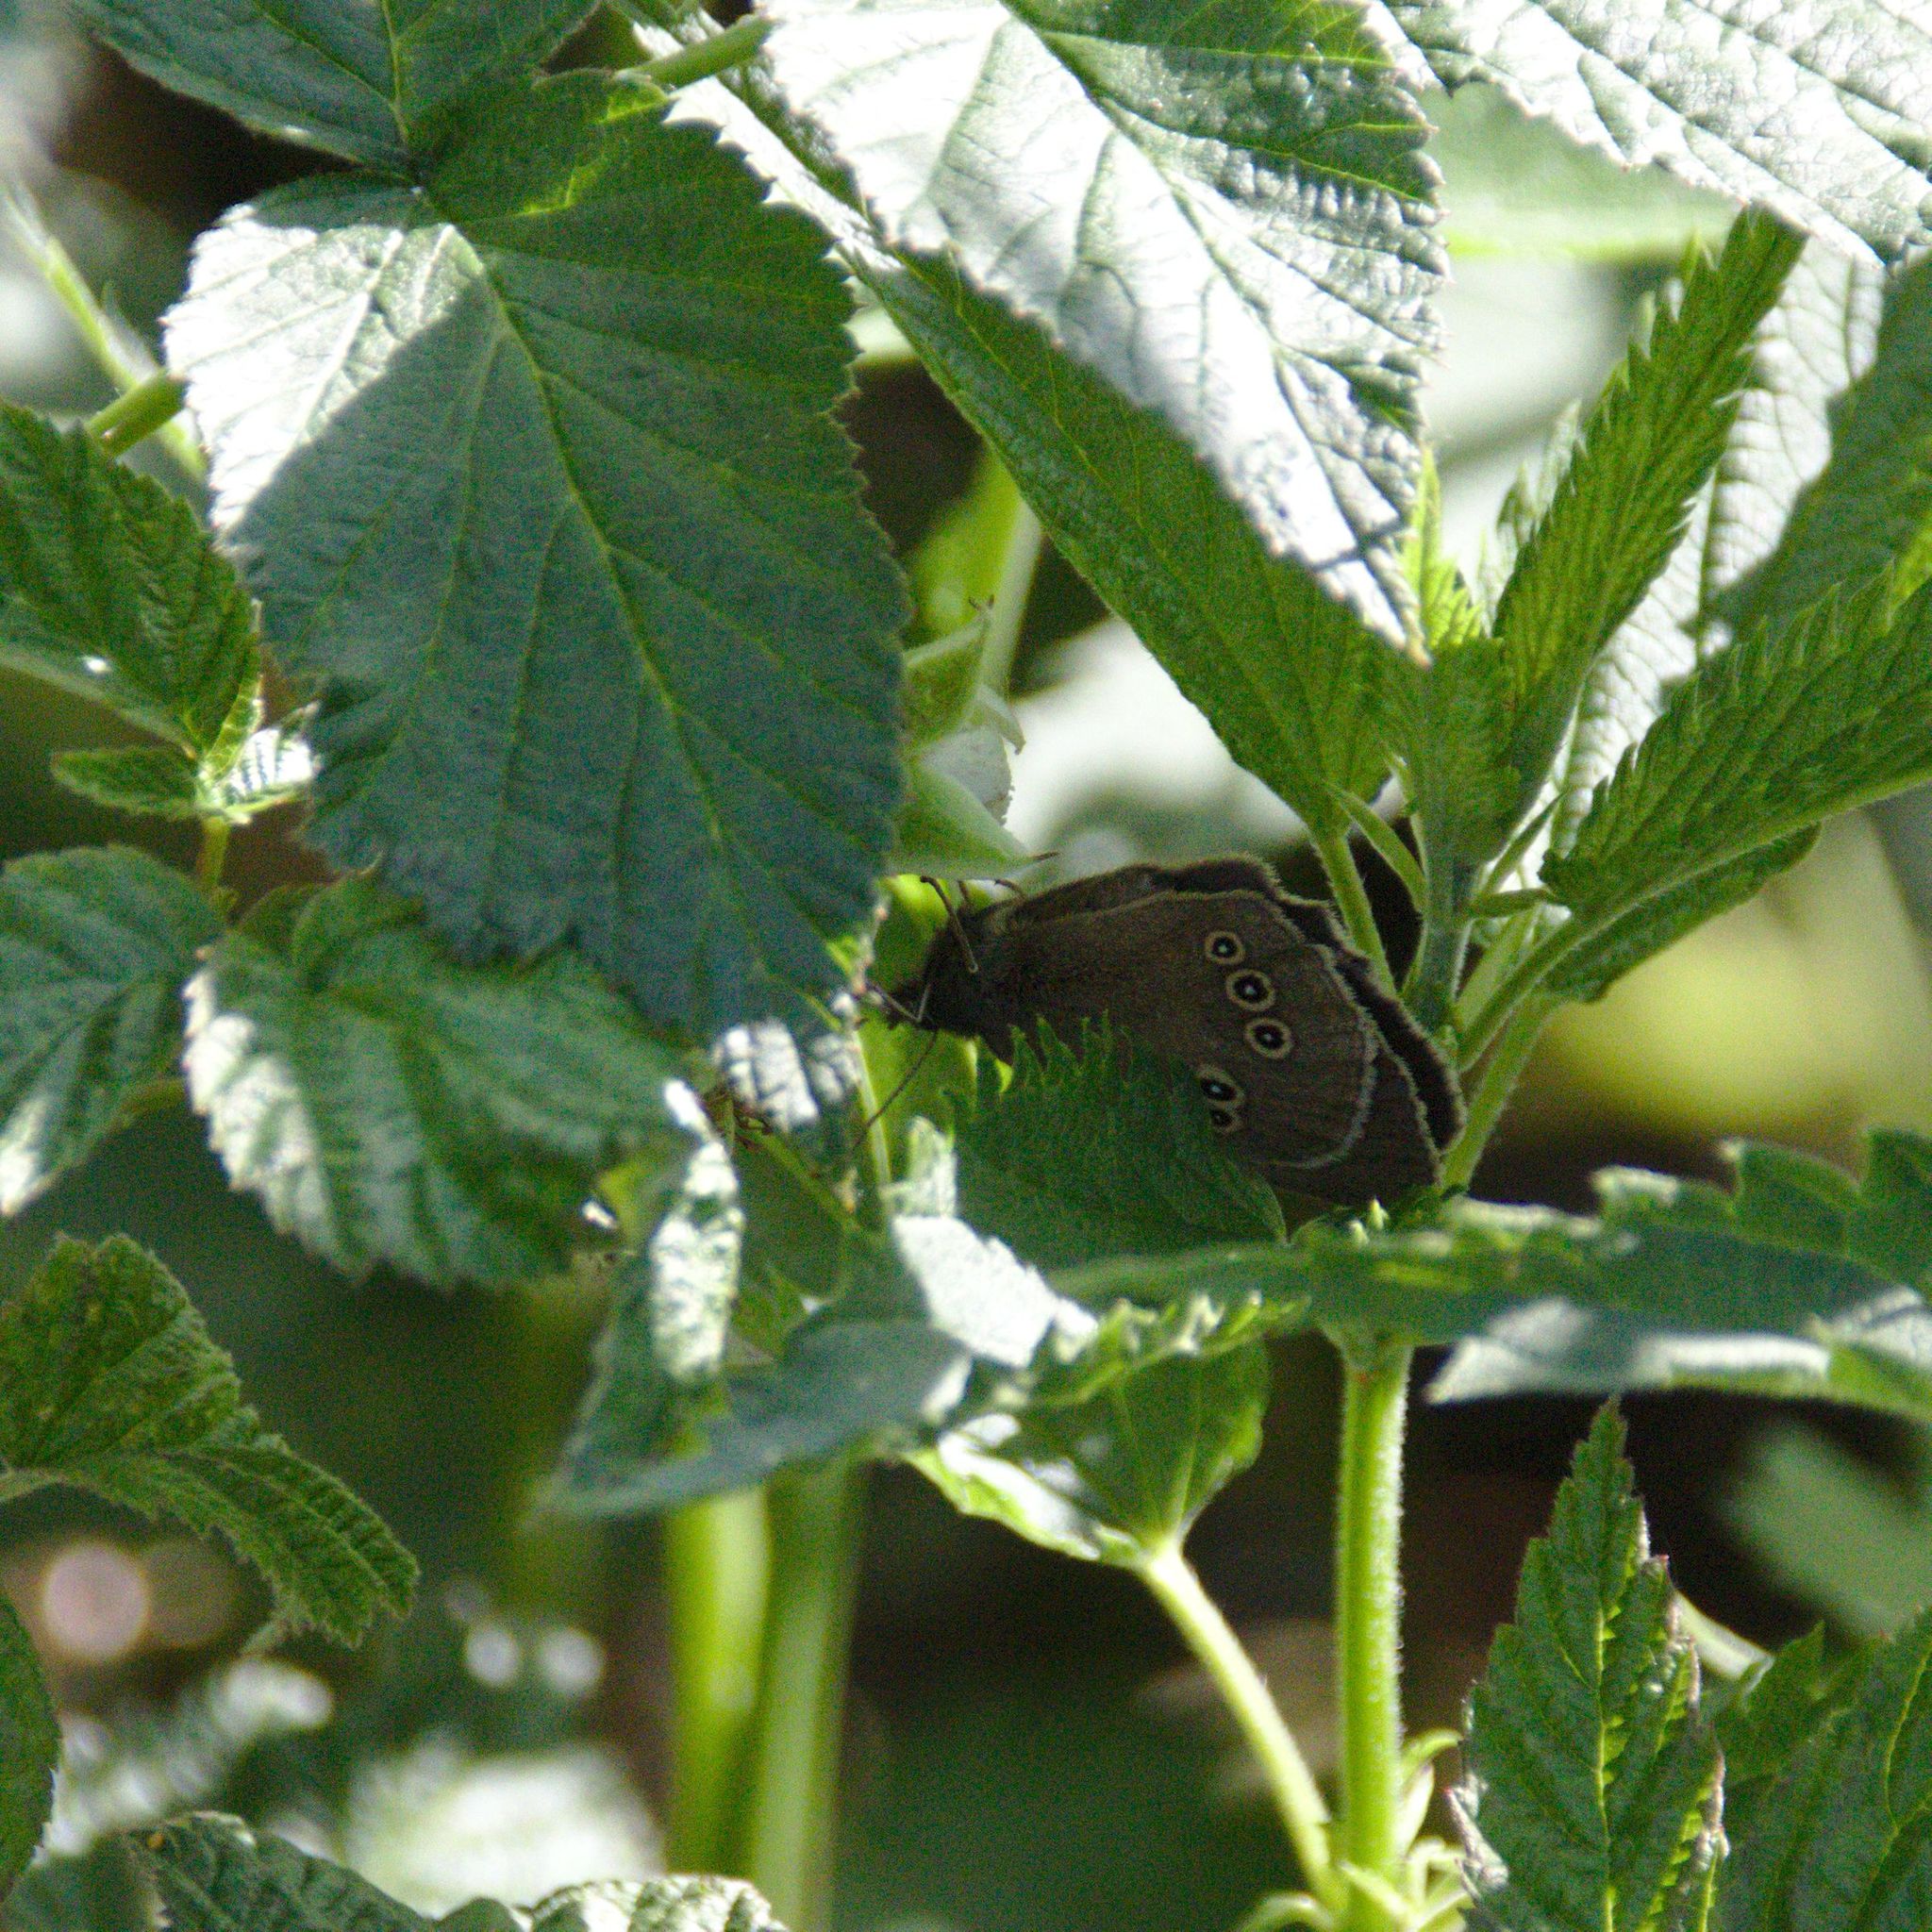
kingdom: Animalia
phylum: Arthropoda
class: Insecta
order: Lepidoptera
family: Nymphalidae
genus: Aphantopus
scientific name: Aphantopus hyperantus
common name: Ringlet
